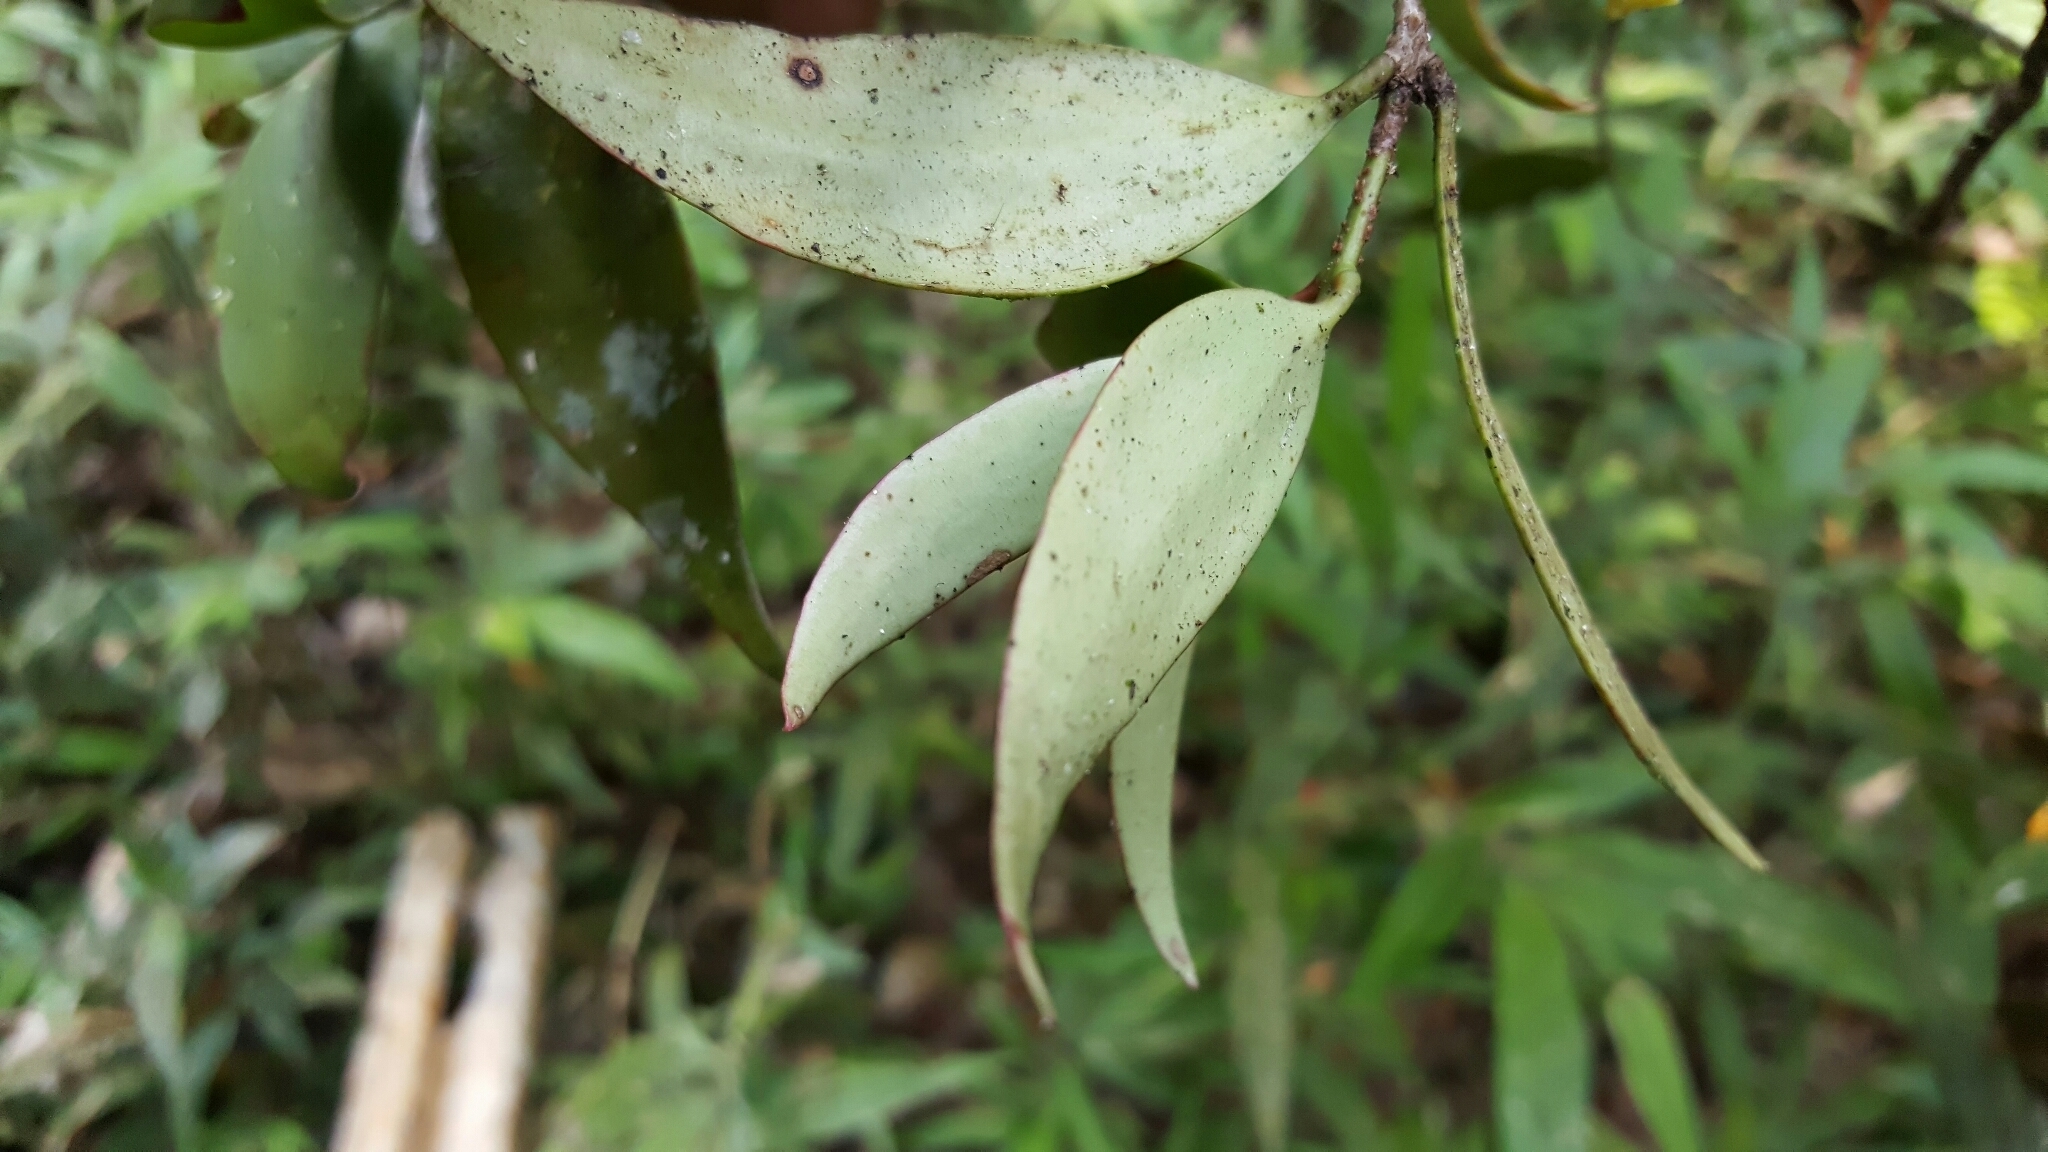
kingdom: Plantae
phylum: Tracheophyta
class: Magnoliopsida
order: Santalales
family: Loranthaceae
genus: Bakerella
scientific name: Bakerella tandrokensis
